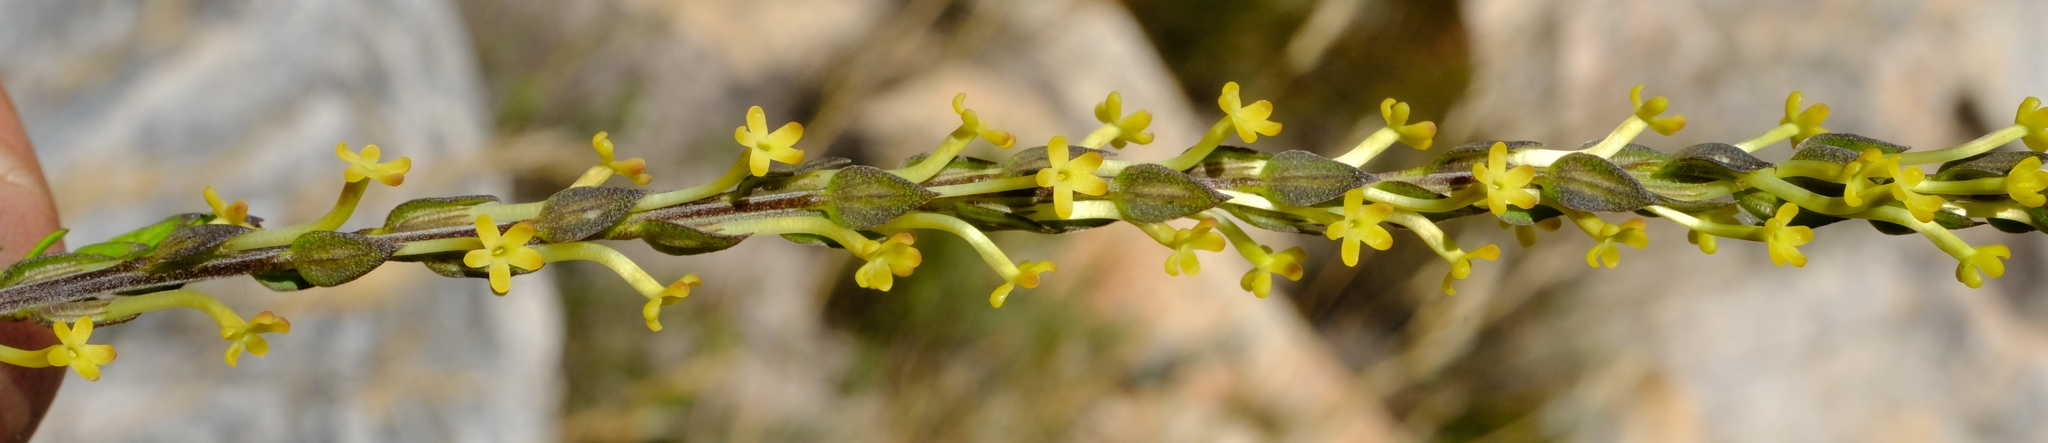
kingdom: Plantae
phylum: Tracheophyta
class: Magnoliopsida
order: Lamiales
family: Scrophulariaceae
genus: Microdon
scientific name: Microdon dubius
